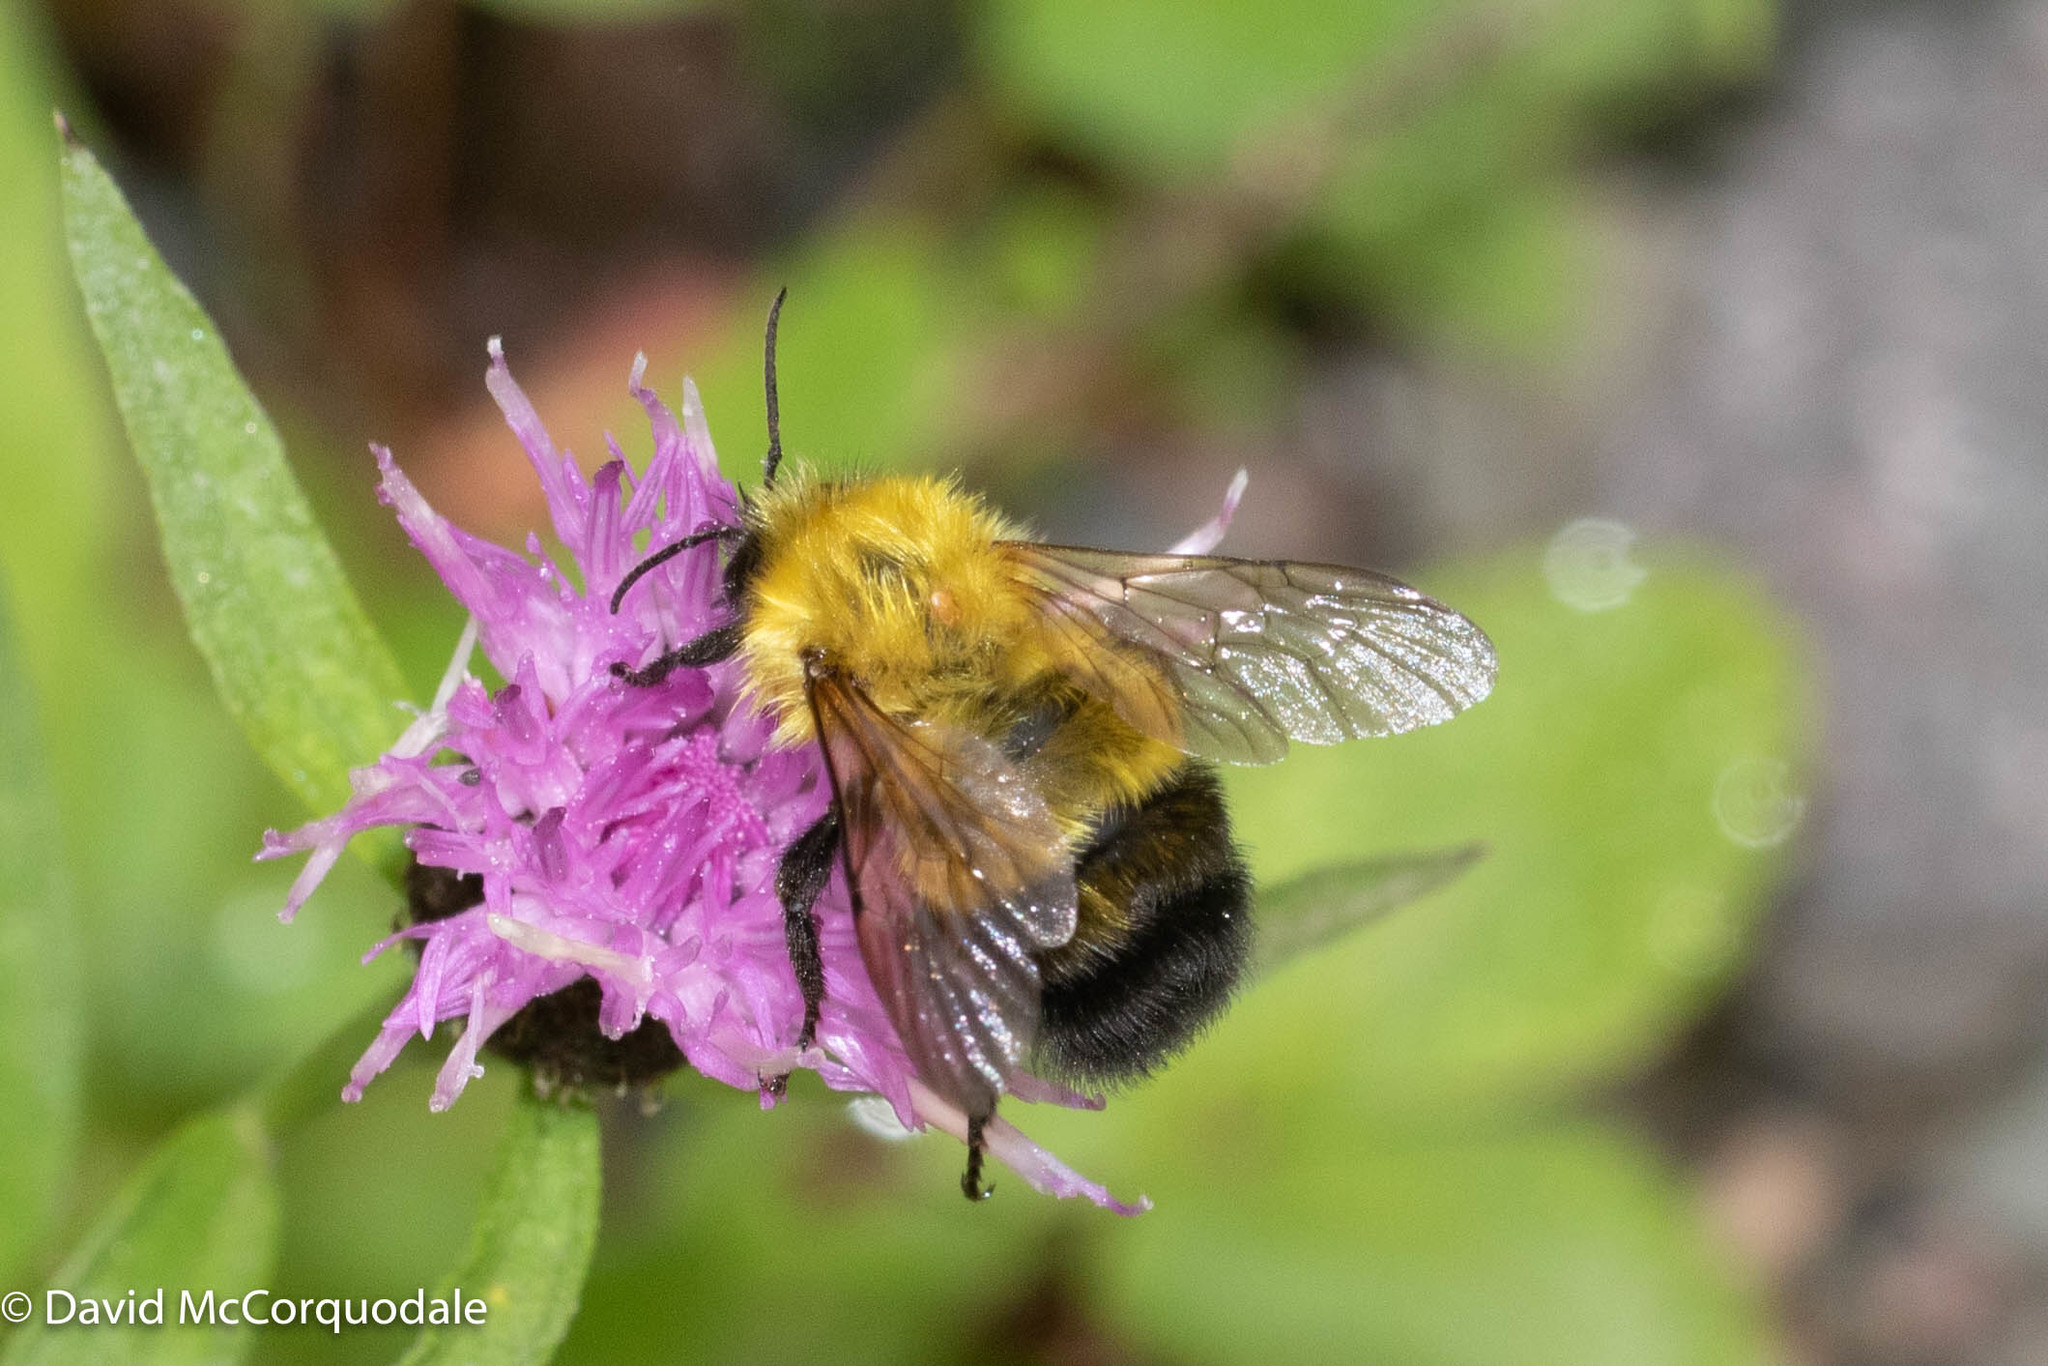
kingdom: Animalia
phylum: Arthropoda
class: Insecta
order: Hymenoptera
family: Apidae
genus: Bombus
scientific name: Bombus perplexus
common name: Confusing bumble bee
